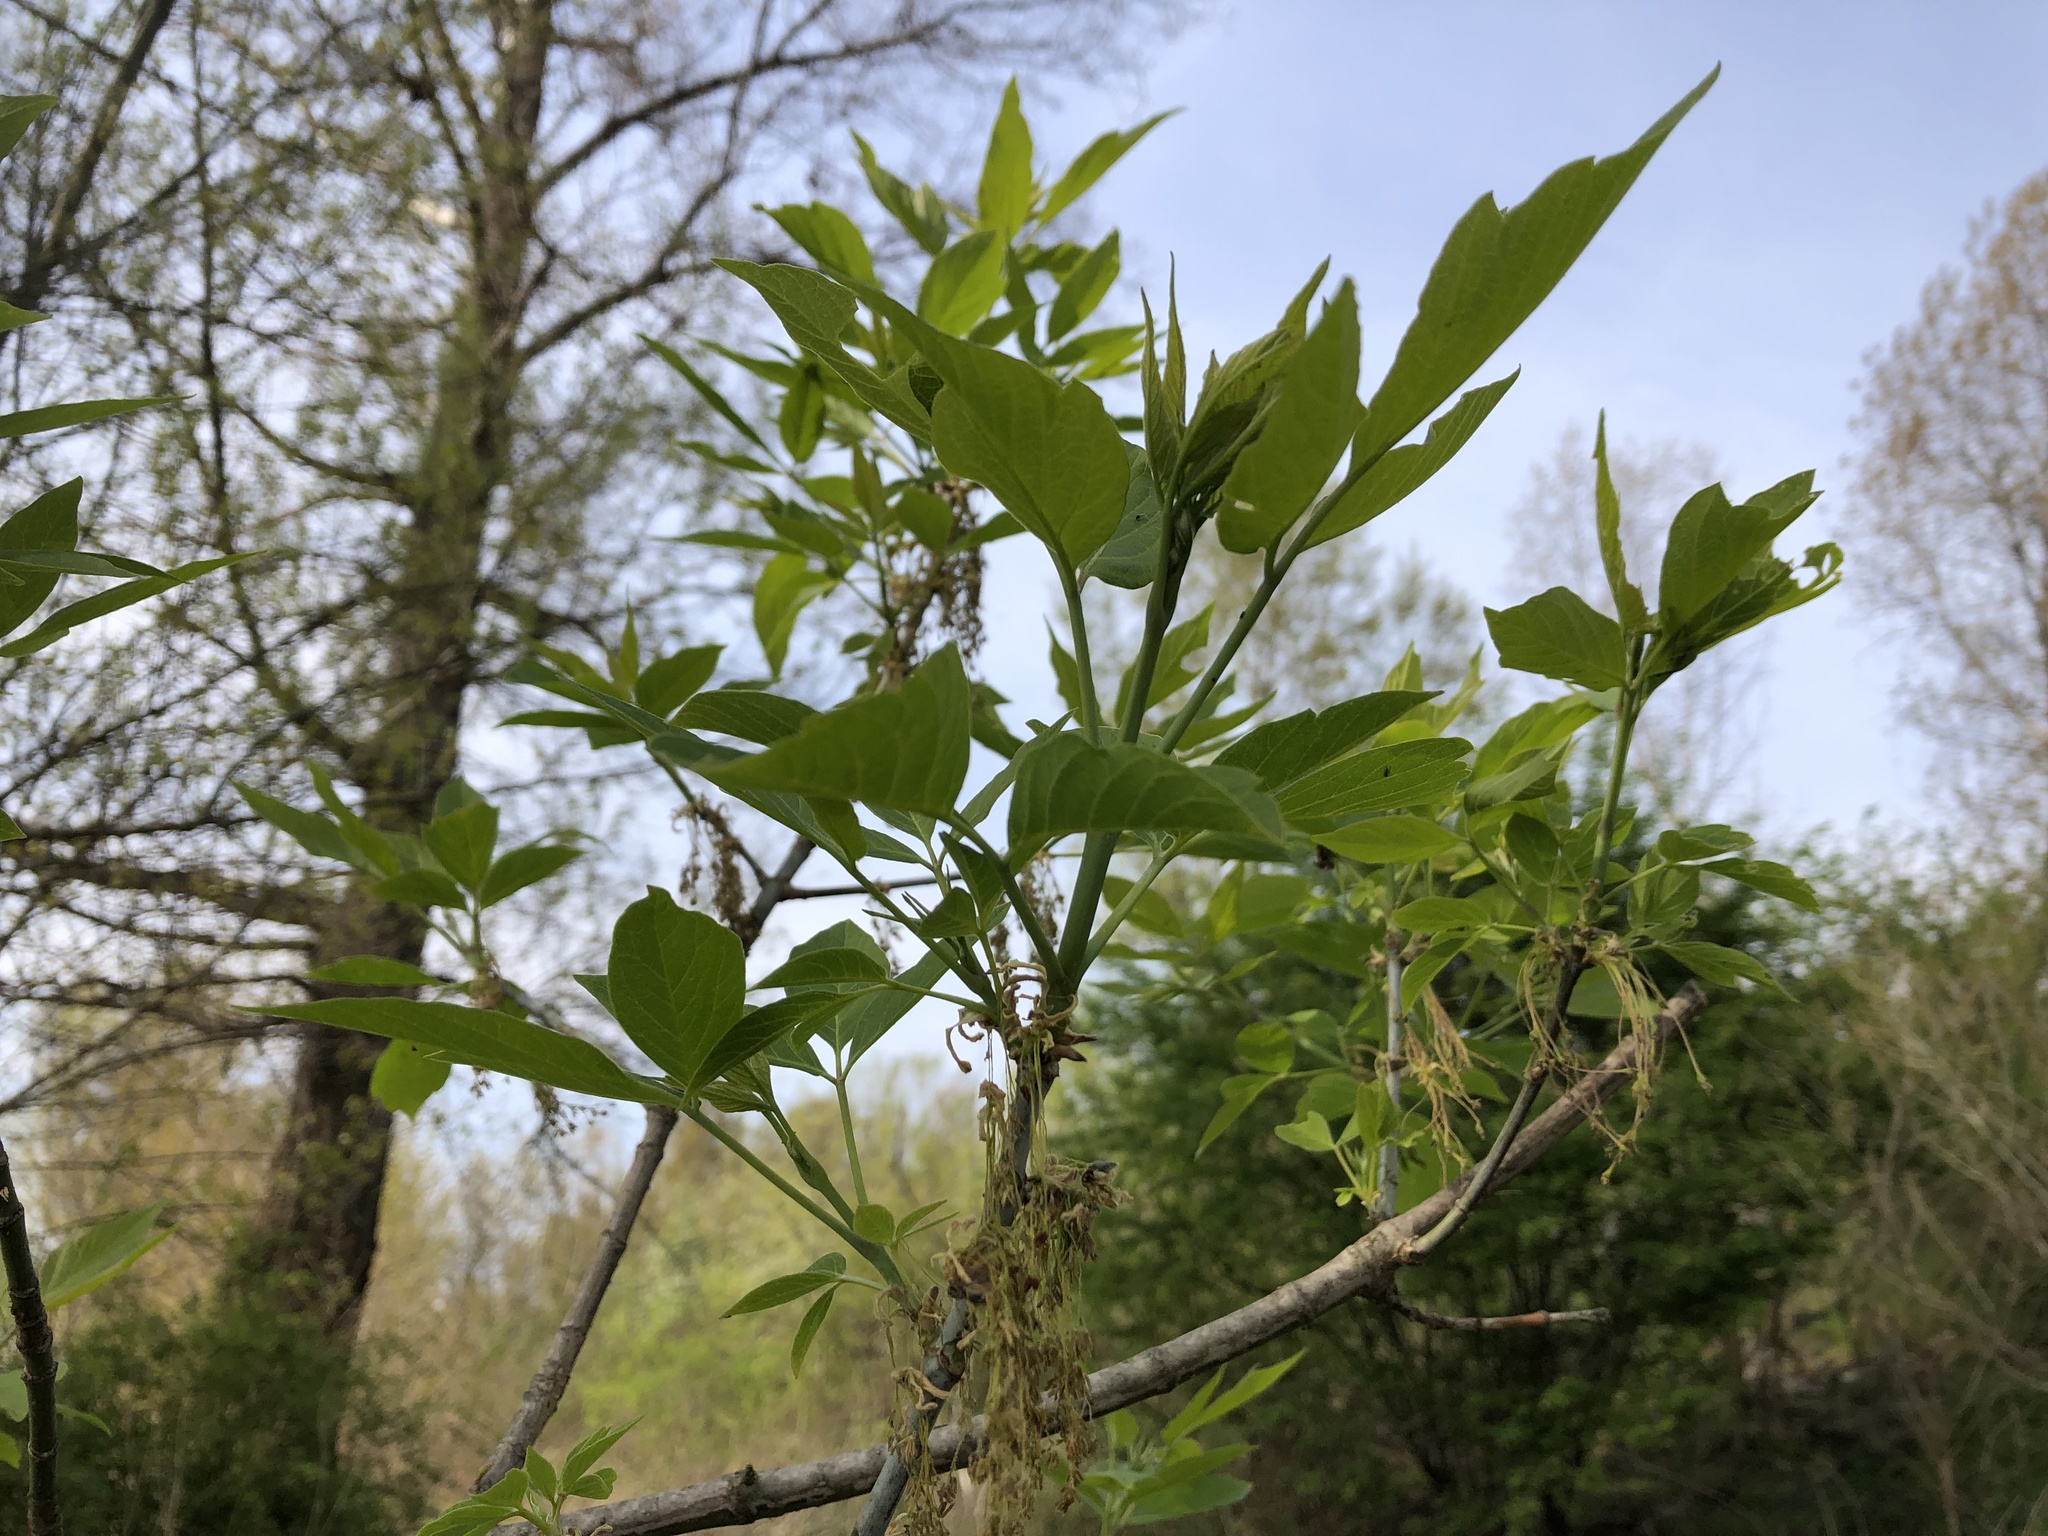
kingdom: Plantae
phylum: Tracheophyta
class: Magnoliopsida
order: Sapindales
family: Sapindaceae
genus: Acer
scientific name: Acer negundo
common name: Ashleaf maple
